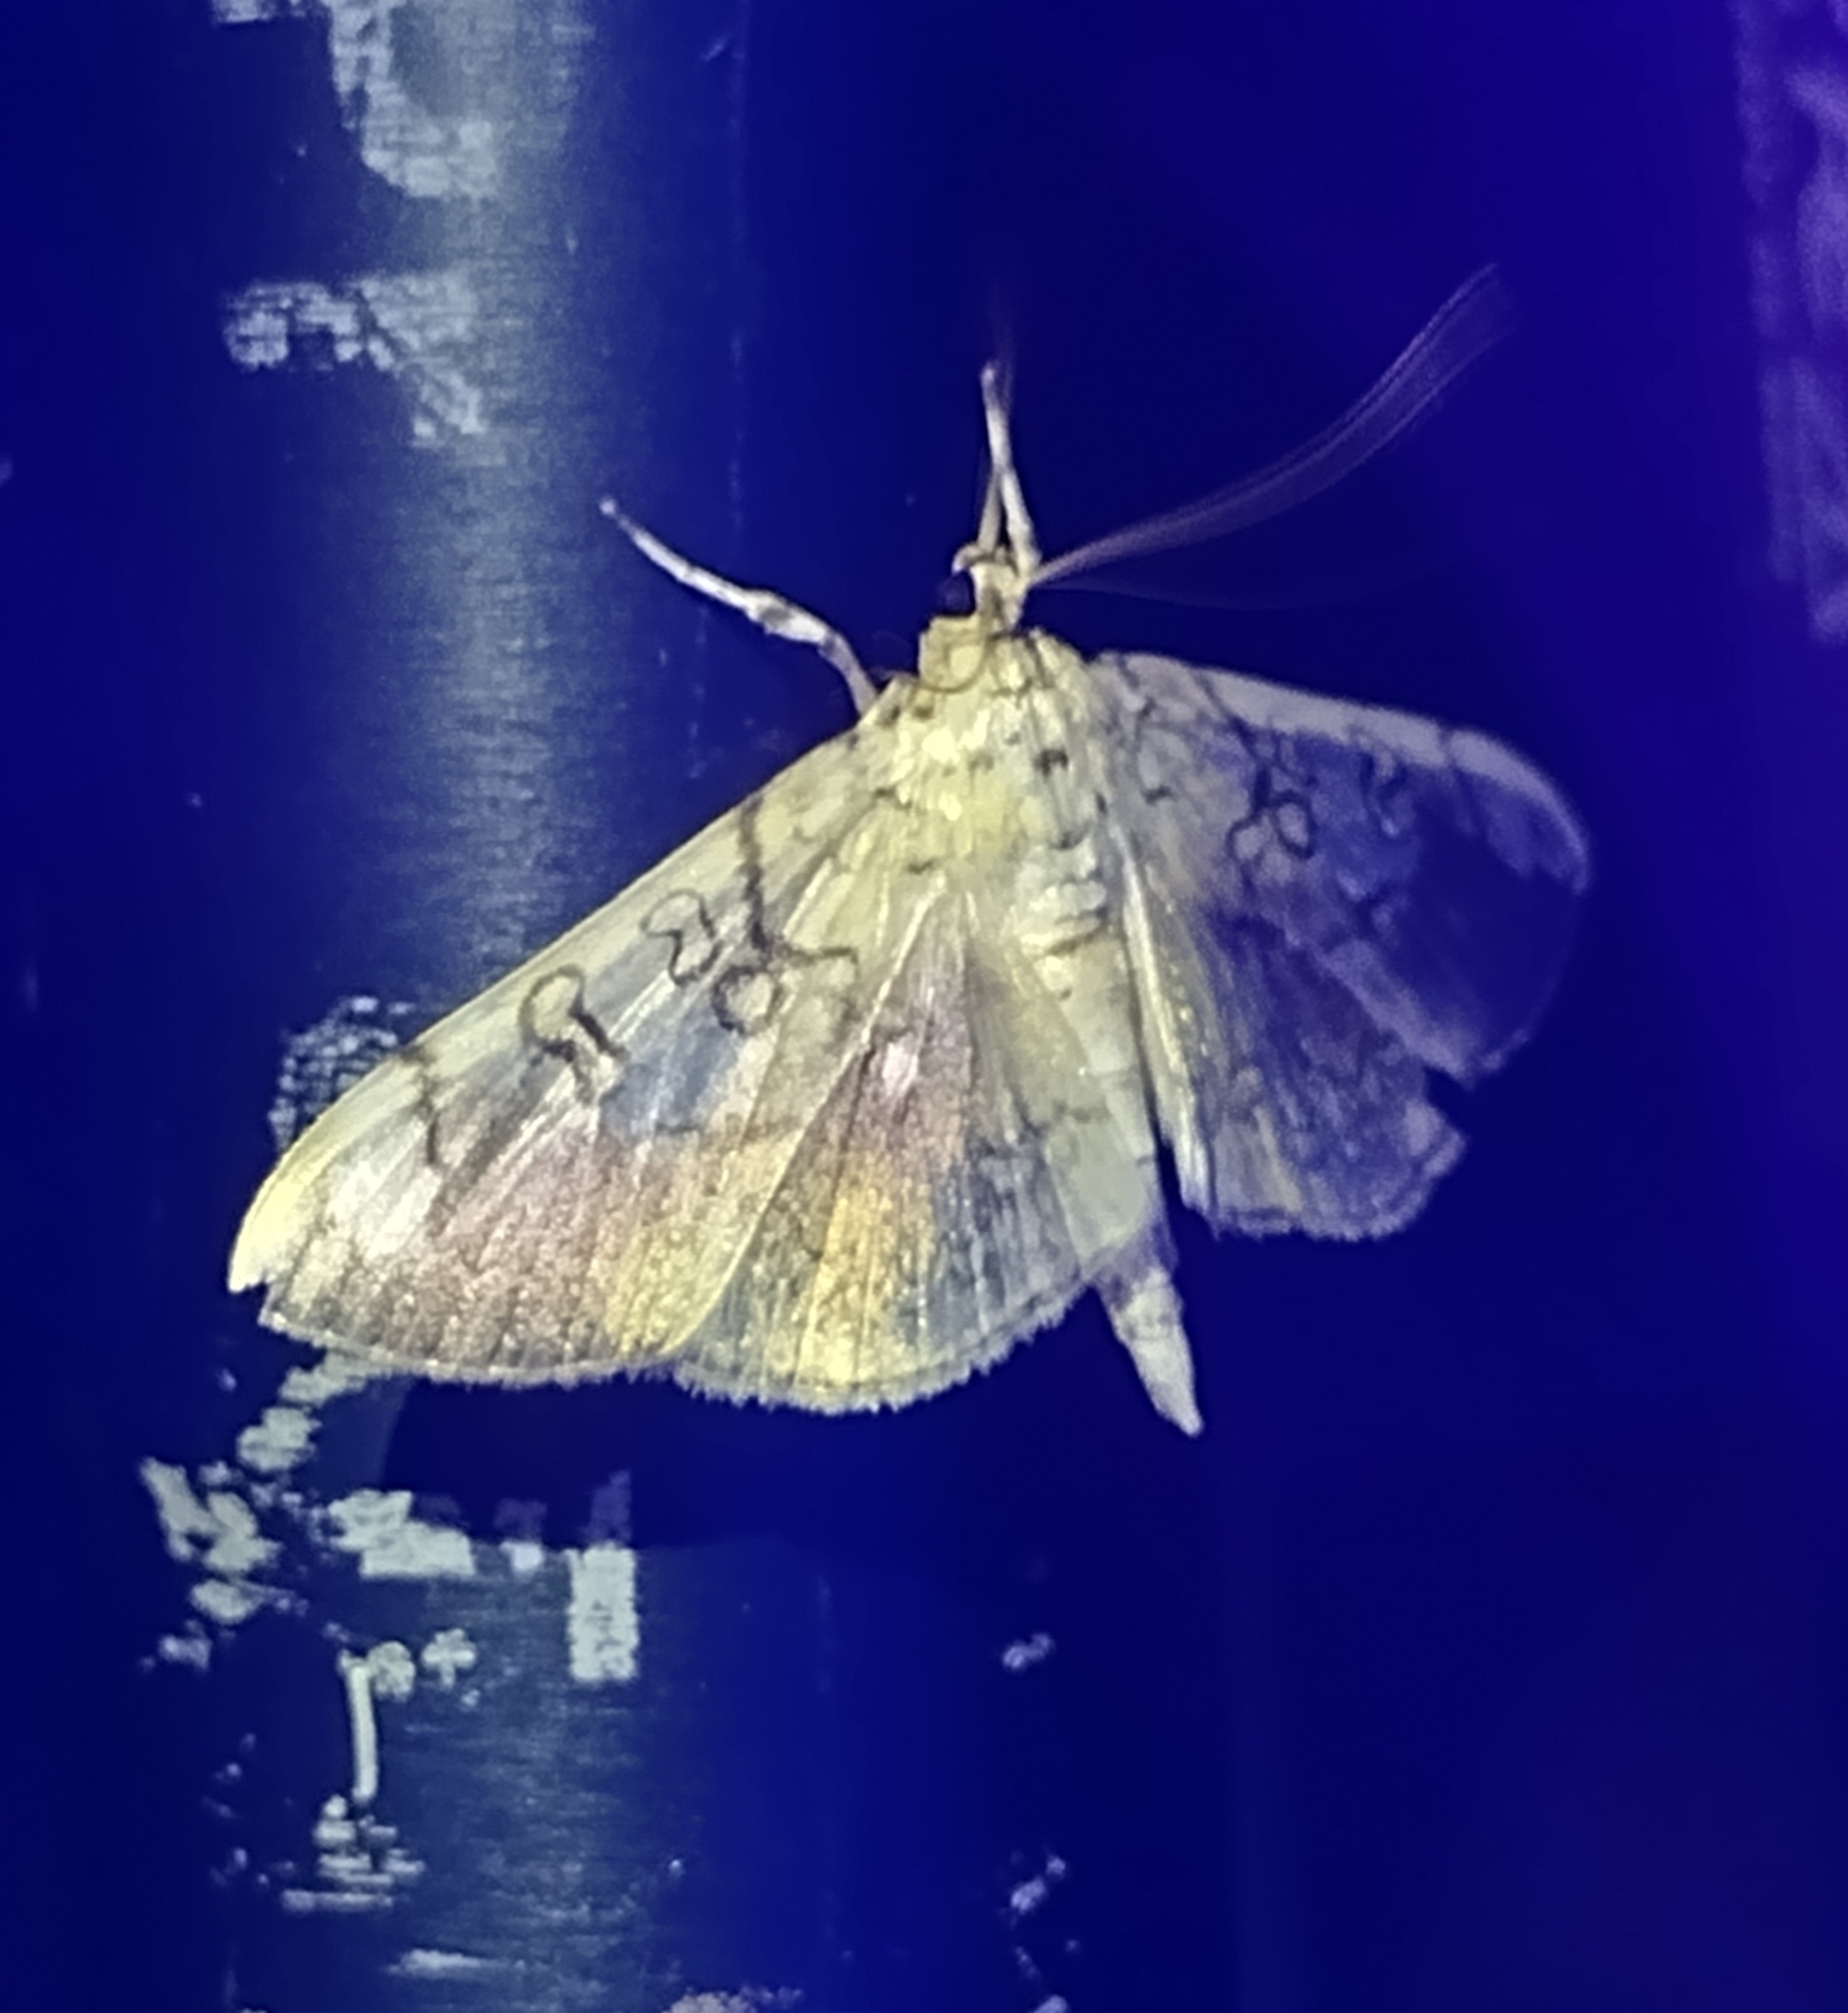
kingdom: Animalia
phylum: Arthropoda
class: Insecta
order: Lepidoptera
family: Crambidae
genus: Pantographa
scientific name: Pantographa limata
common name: Basswood leafroller moth
